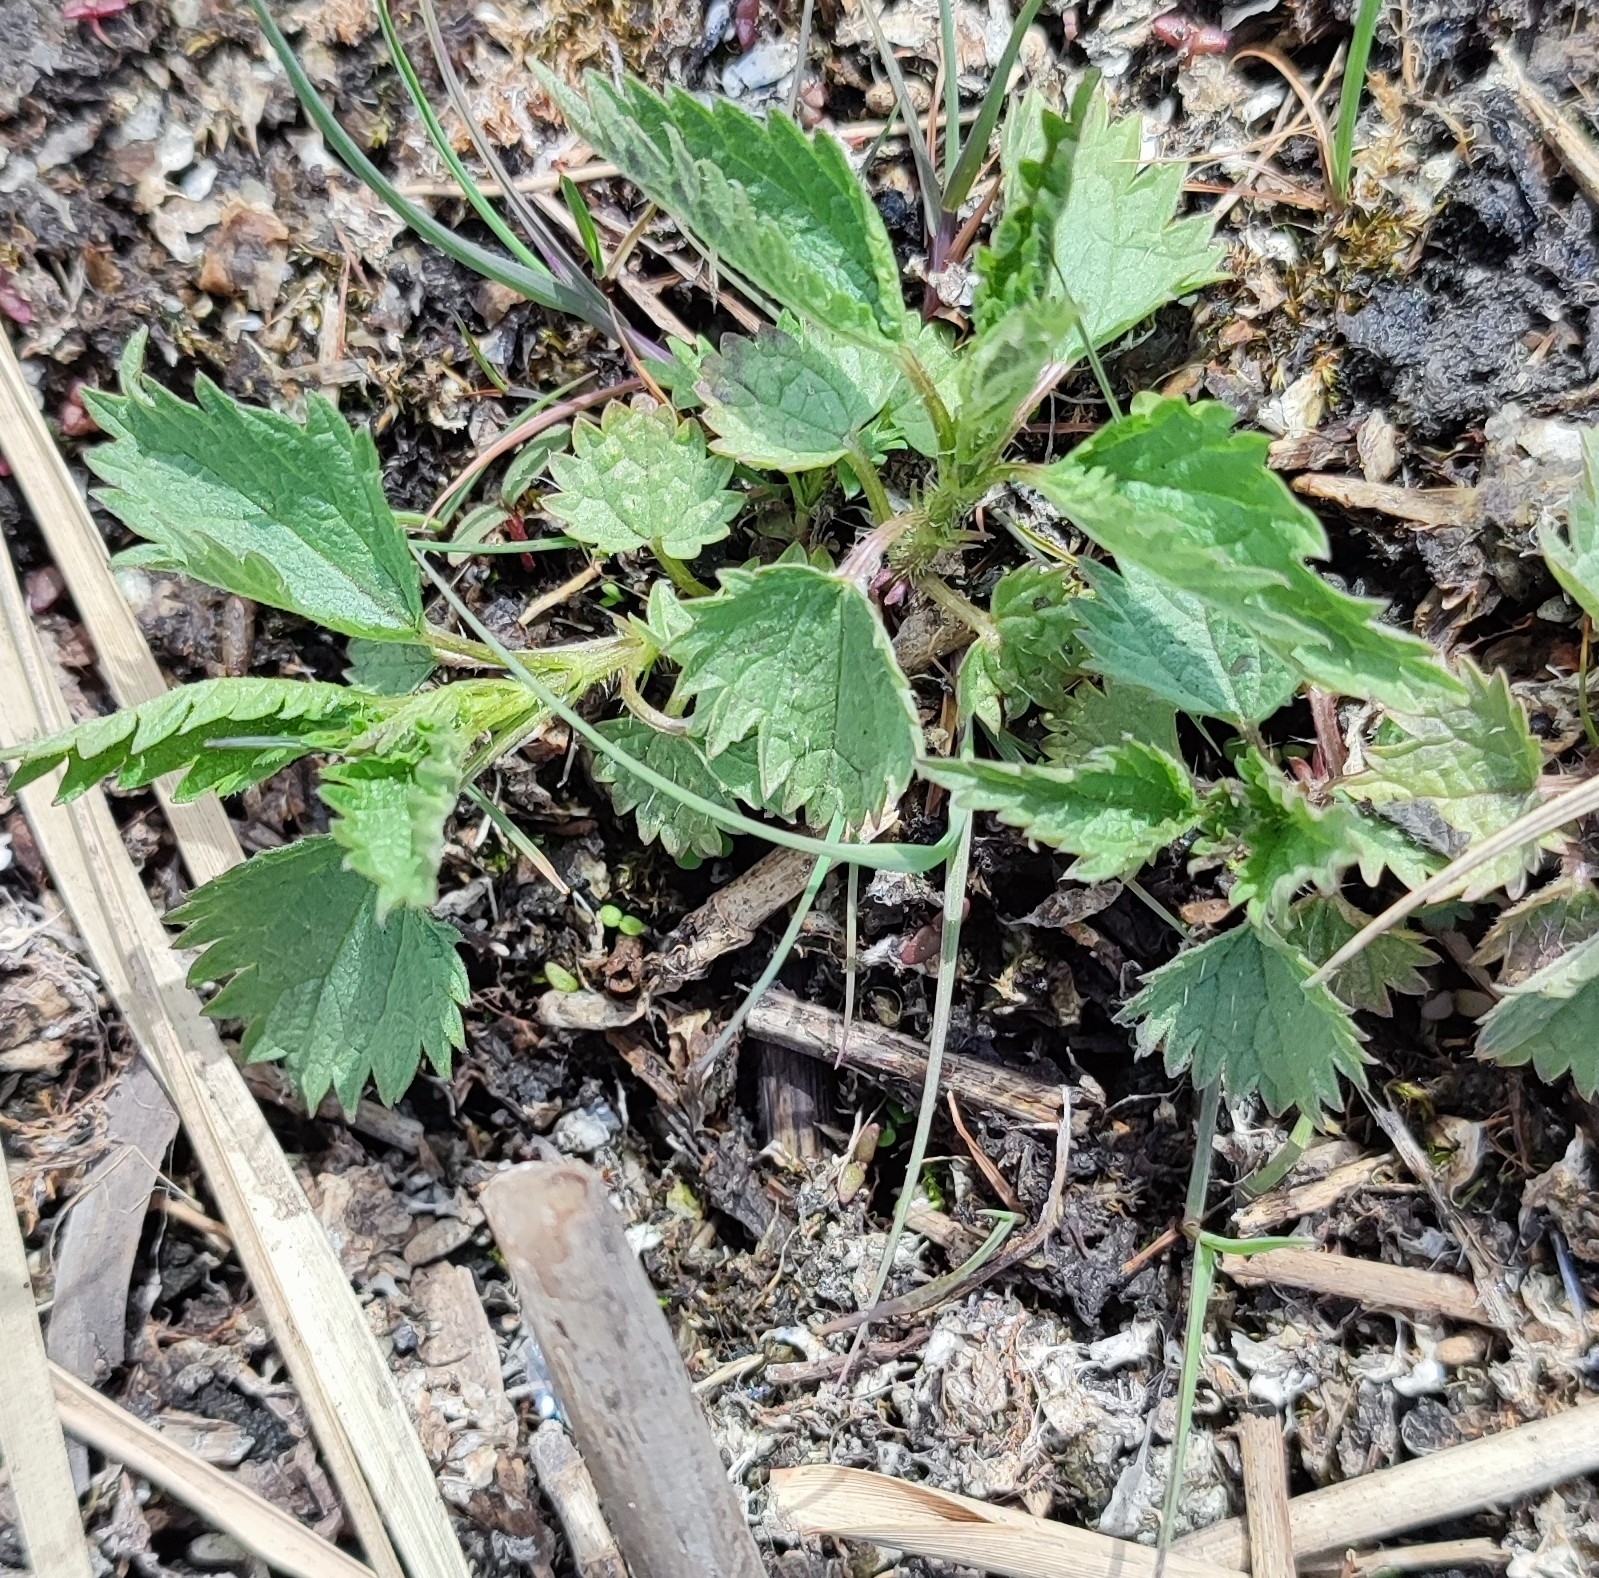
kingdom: Plantae
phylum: Tracheophyta
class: Magnoliopsida
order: Rosales
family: Urticaceae
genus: Urtica
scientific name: Urtica dioica
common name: Common nettle
